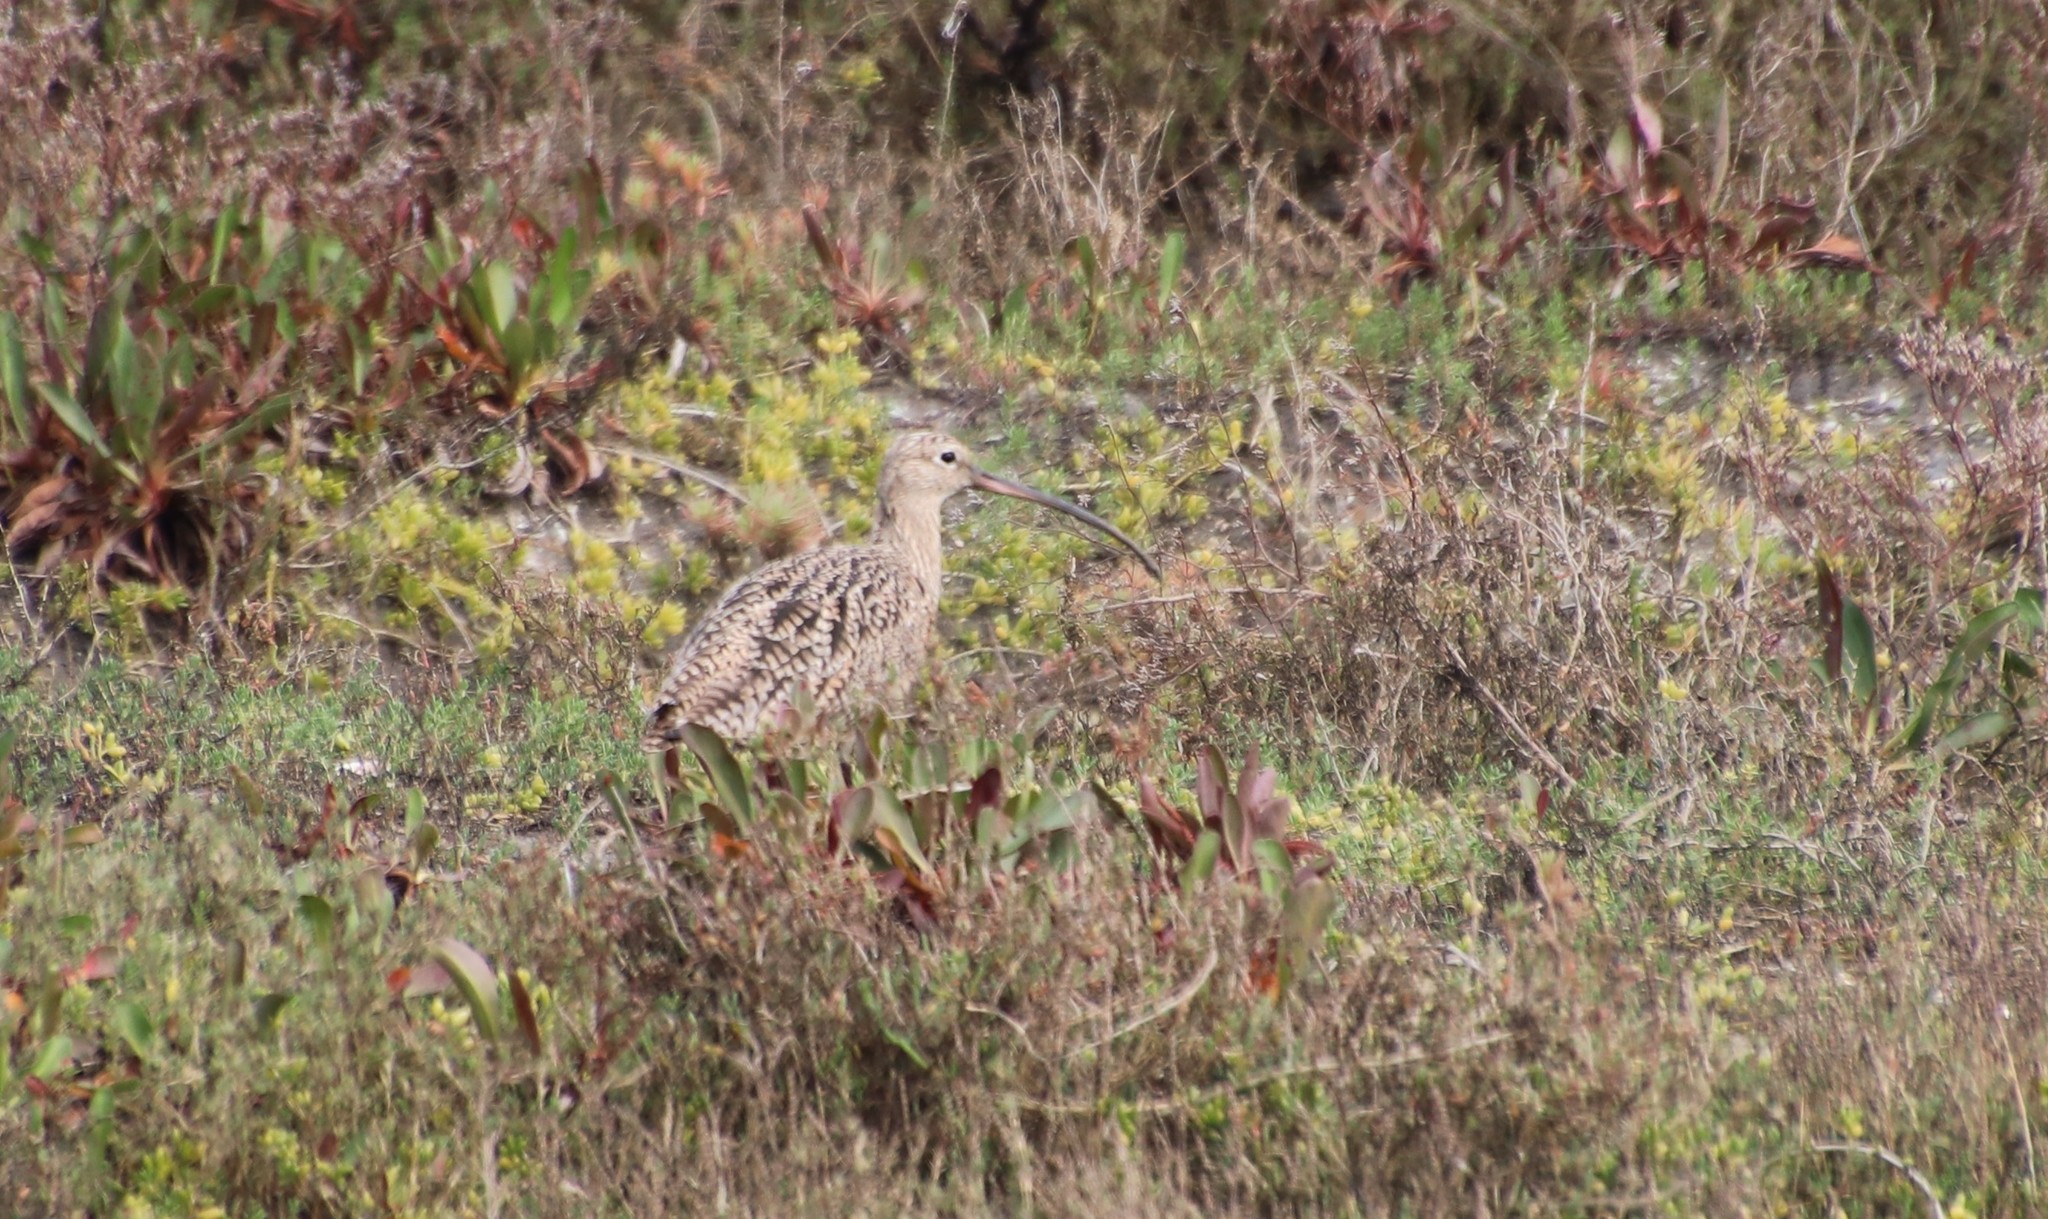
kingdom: Animalia
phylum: Chordata
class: Aves
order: Charadriiformes
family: Scolopacidae
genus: Numenius
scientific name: Numenius americanus
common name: Long-billed curlew
